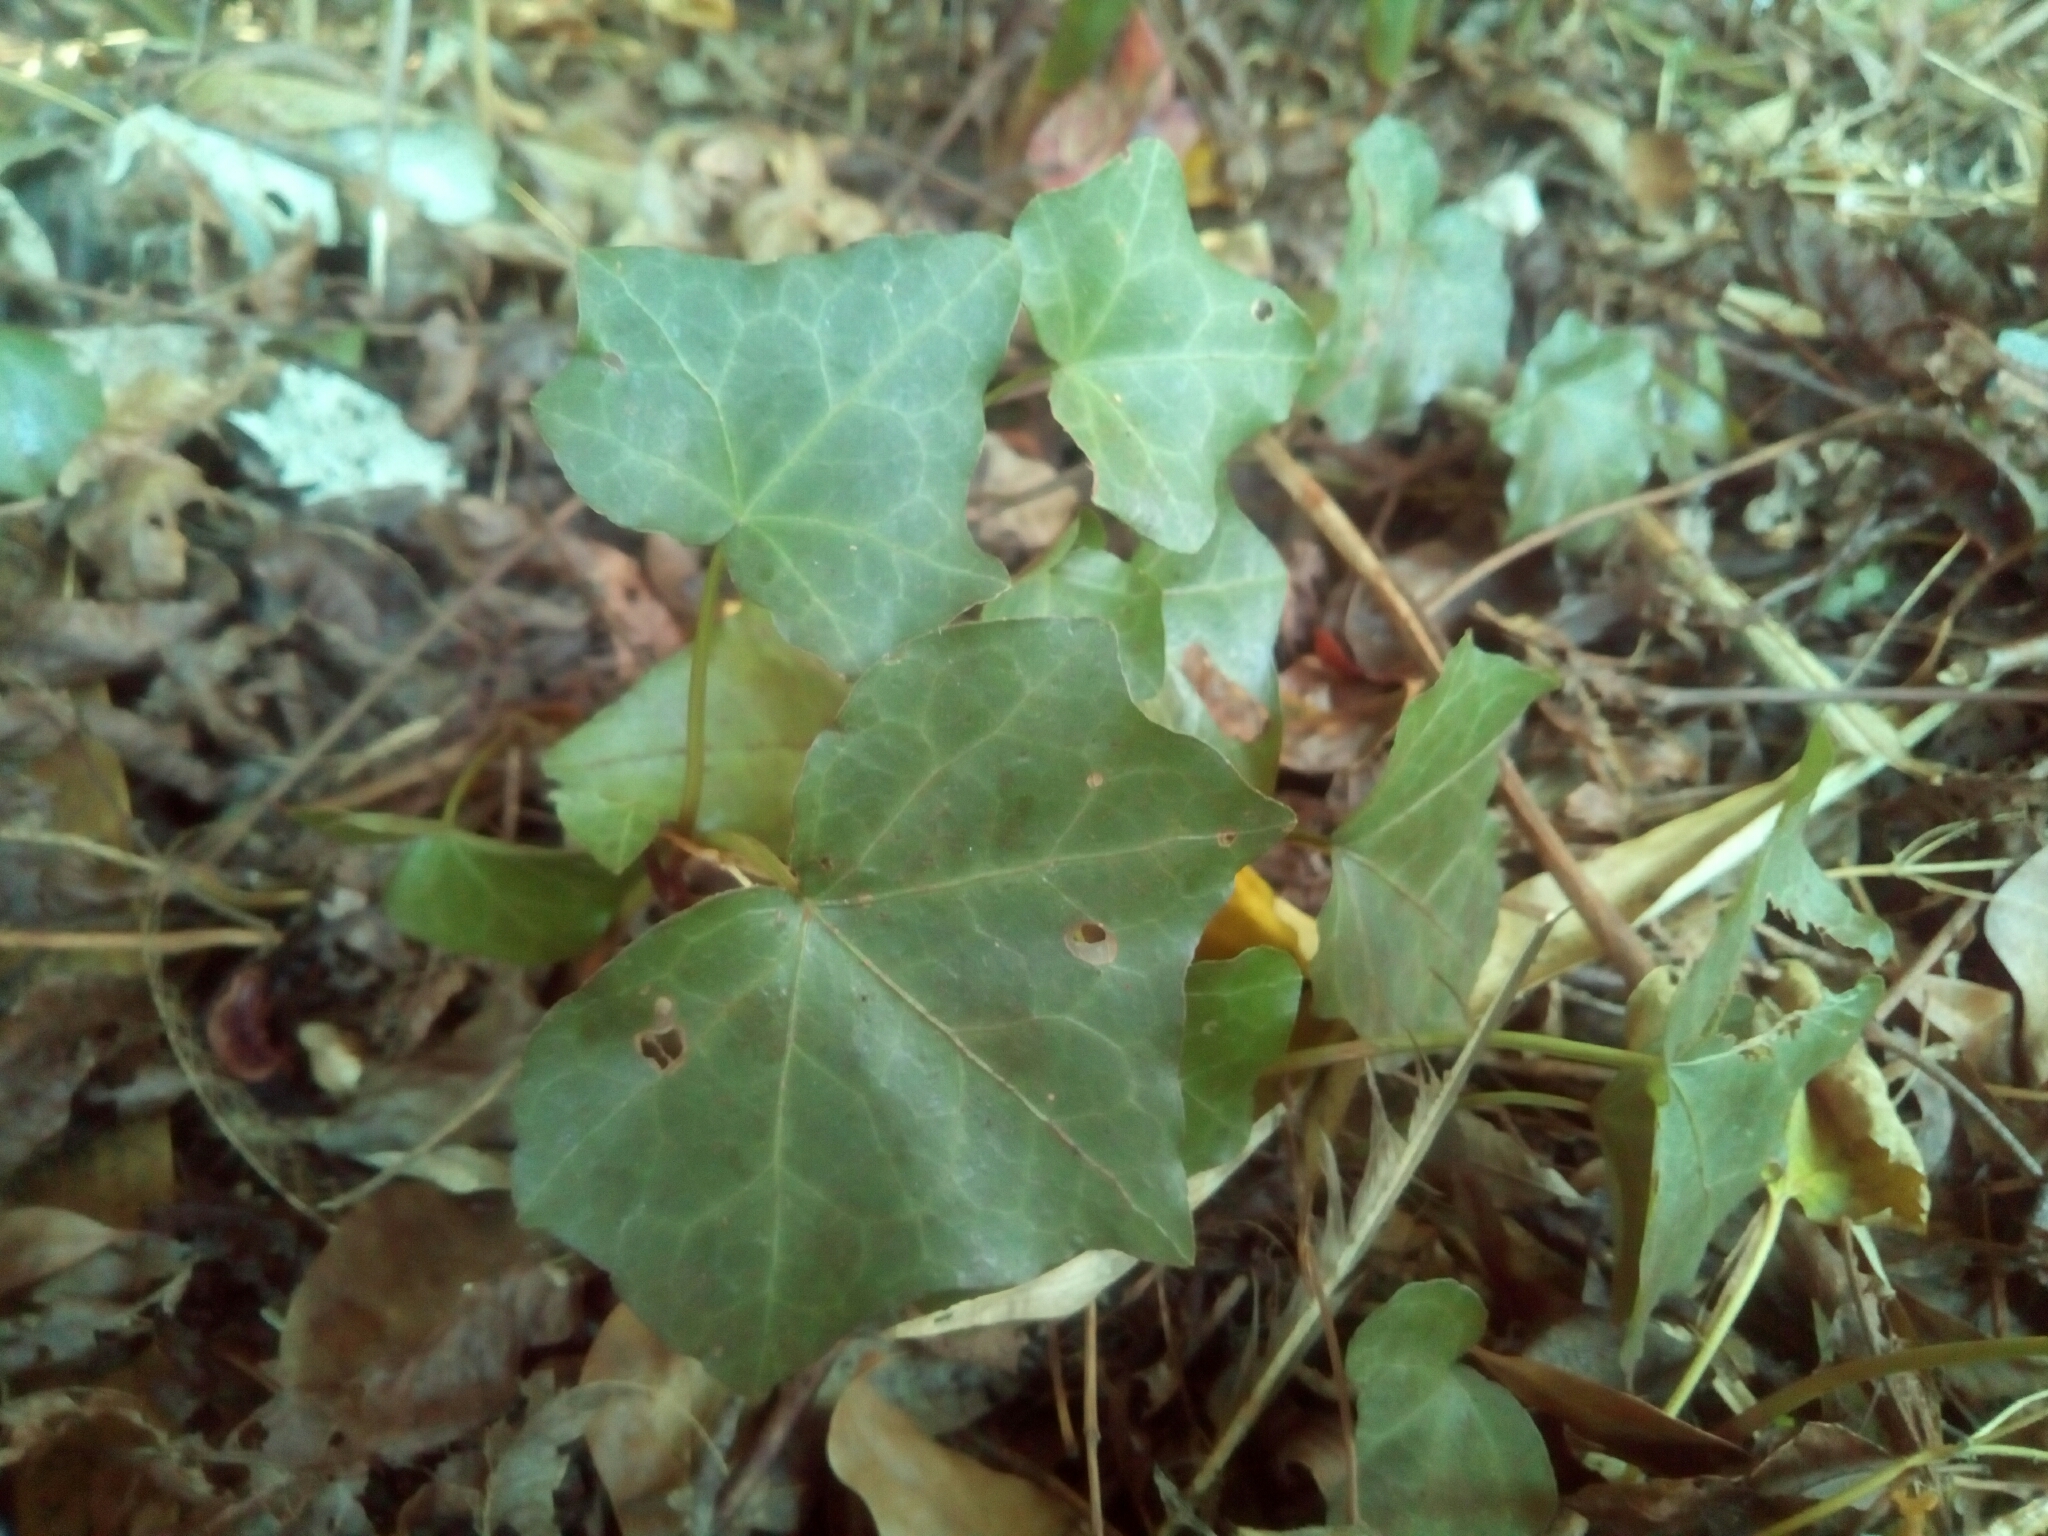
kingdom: Plantae
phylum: Tracheophyta
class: Magnoliopsida
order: Apiales
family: Araliaceae
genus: Hedera
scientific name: Hedera helix
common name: Ivy
